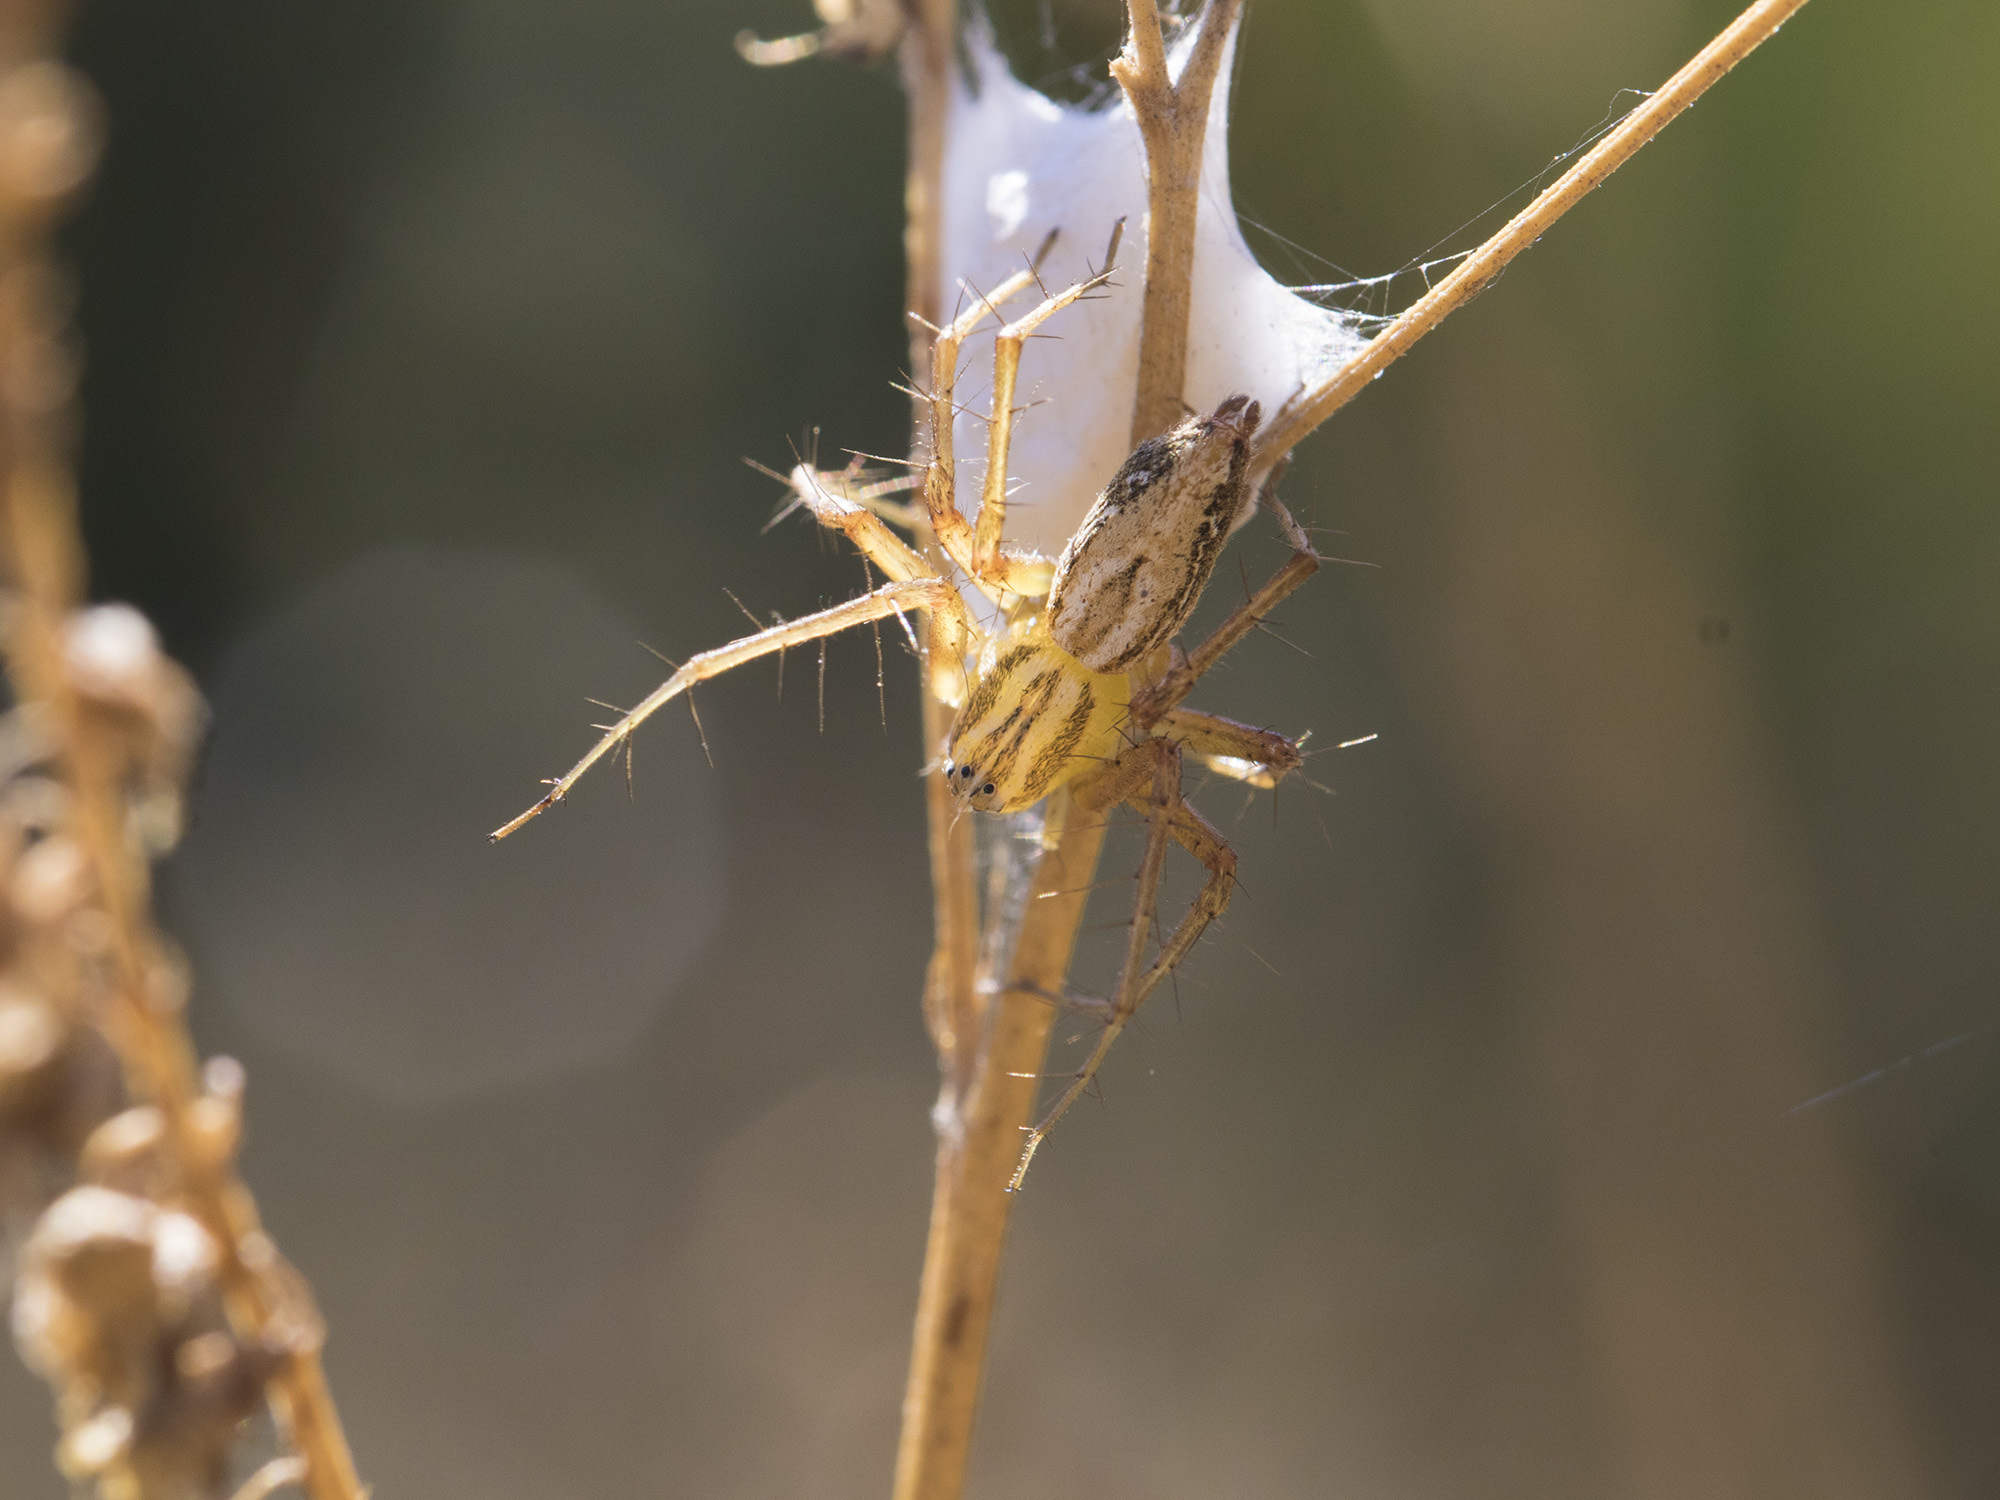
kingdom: Animalia
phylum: Arthropoda
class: Arachnida
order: Araneae
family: Oxyopidae
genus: Oxyopes
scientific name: Oxyopes lineatus
